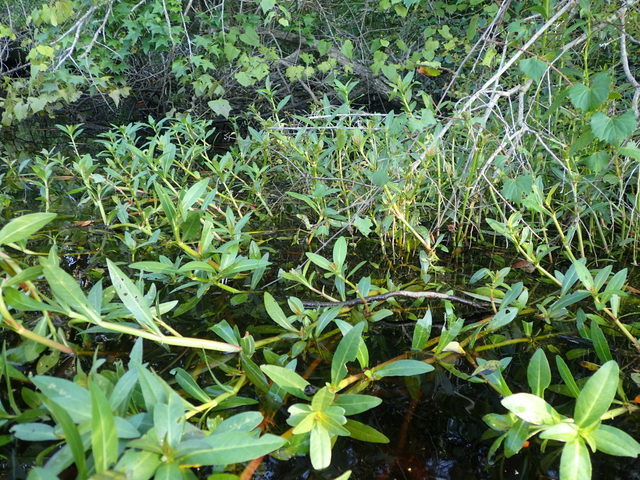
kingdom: Plantae
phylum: Tracheophyta
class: Magnoliopsida
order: Caryophyllales
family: Amaranthaceae
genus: Alternanthera
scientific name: Alternanthera philoxeroides
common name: Alligatorweed
